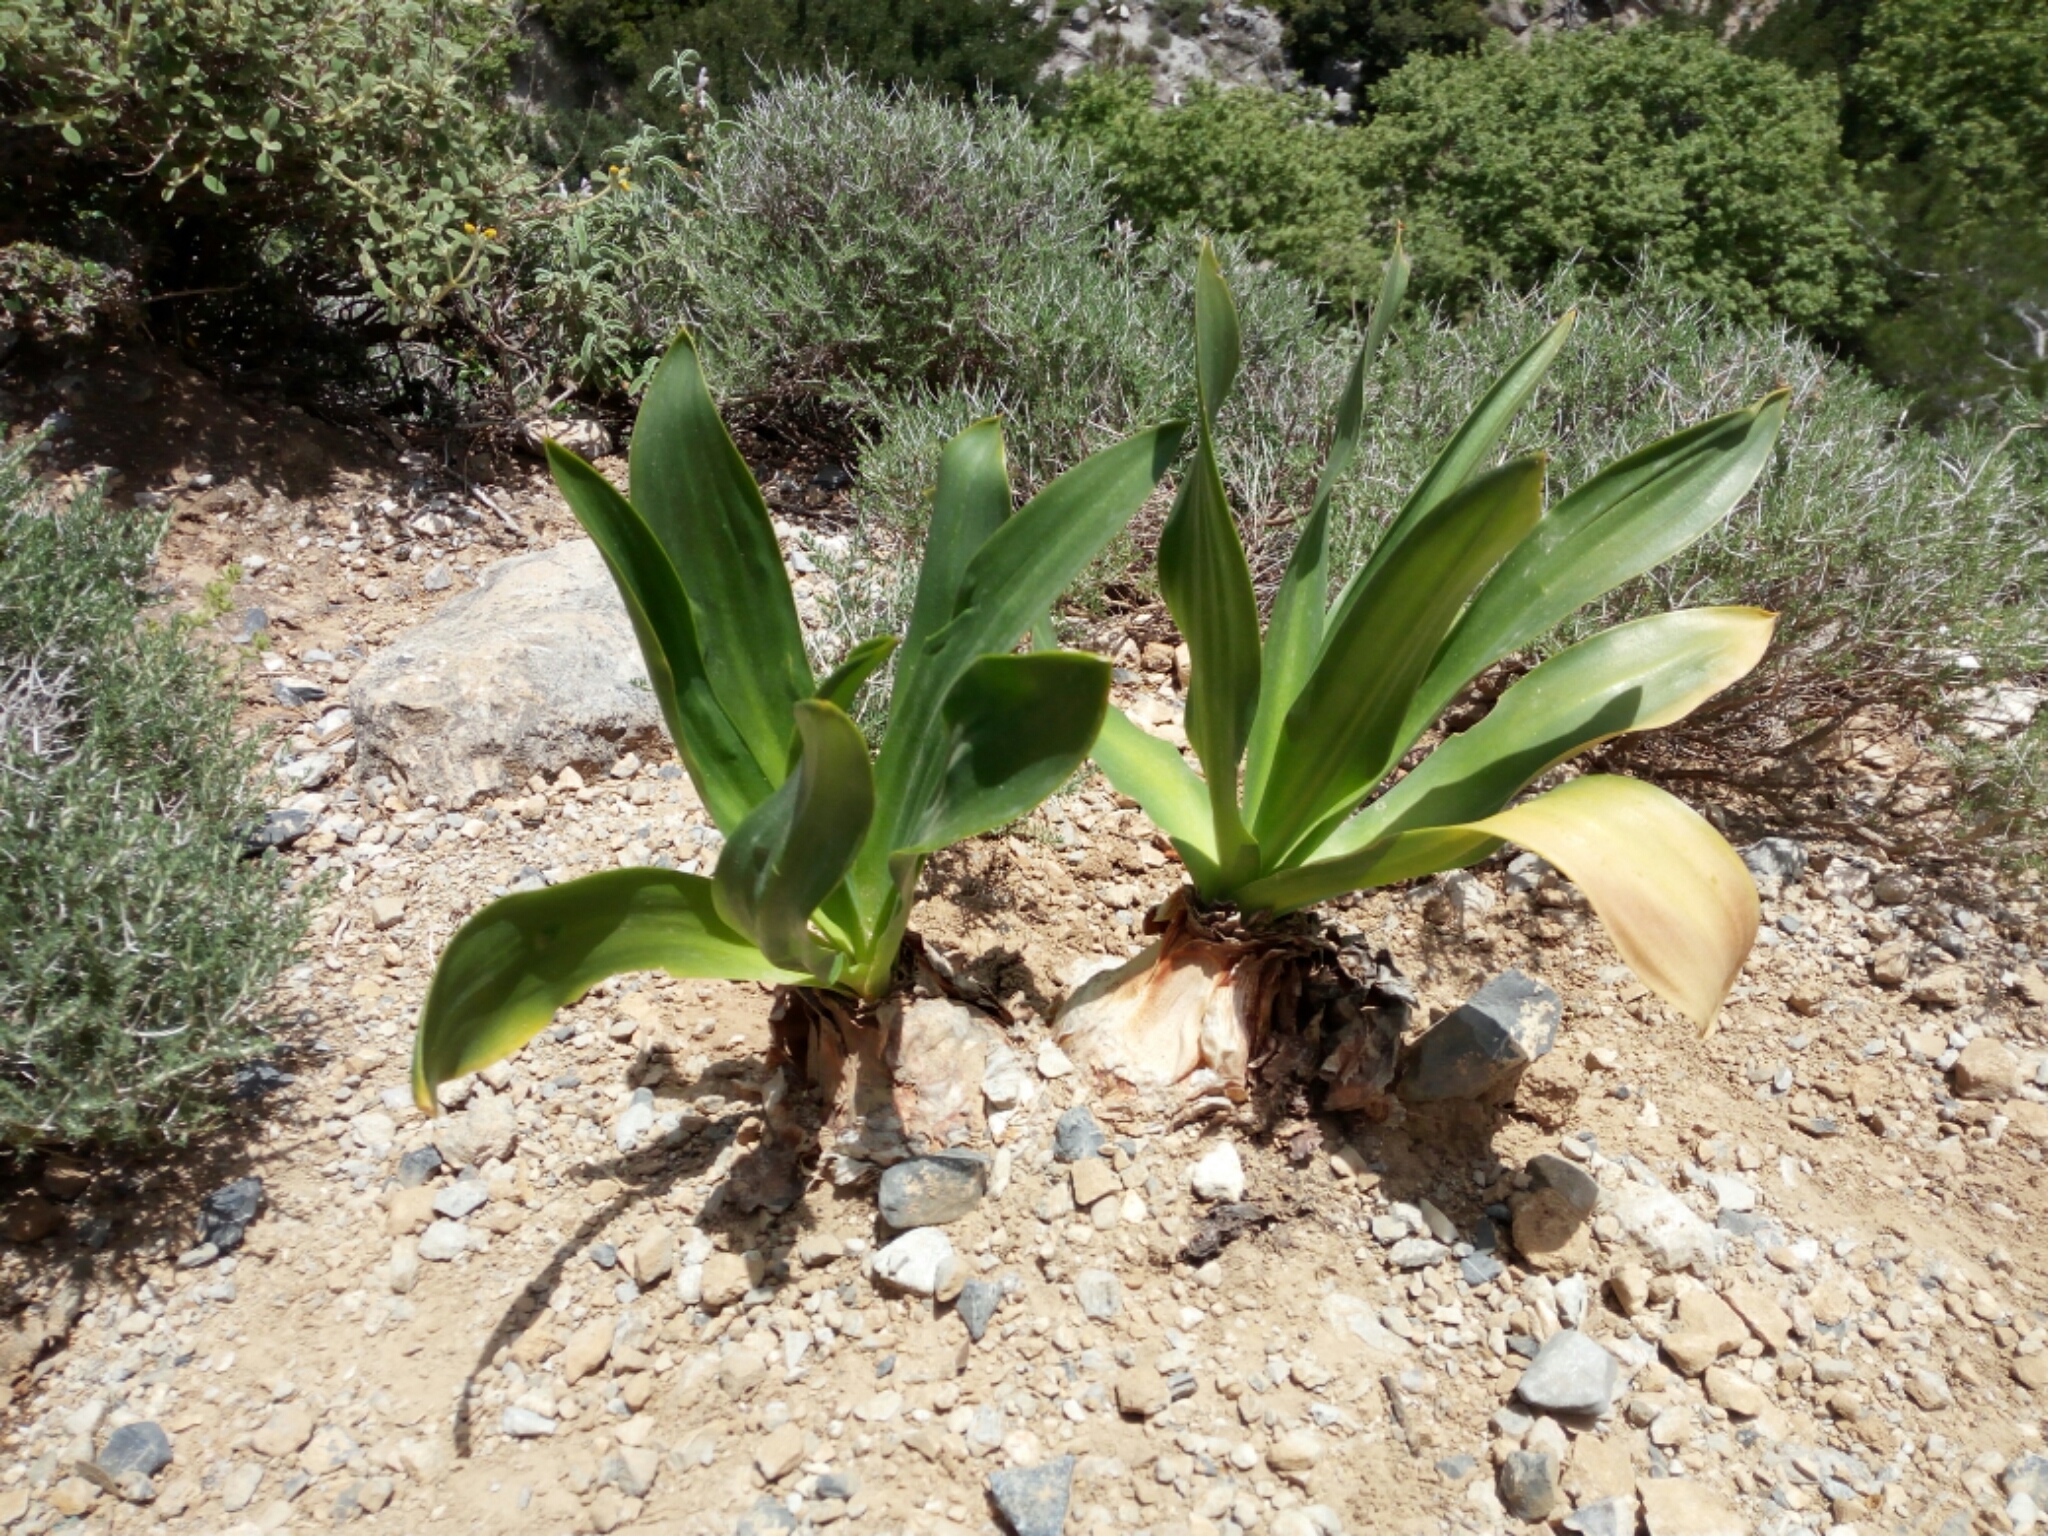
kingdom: Plantae
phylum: Tracheophyta
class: Liliopsida
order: Asparagales
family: Asparagaceae
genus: Drimia
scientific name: Drimia numidica
